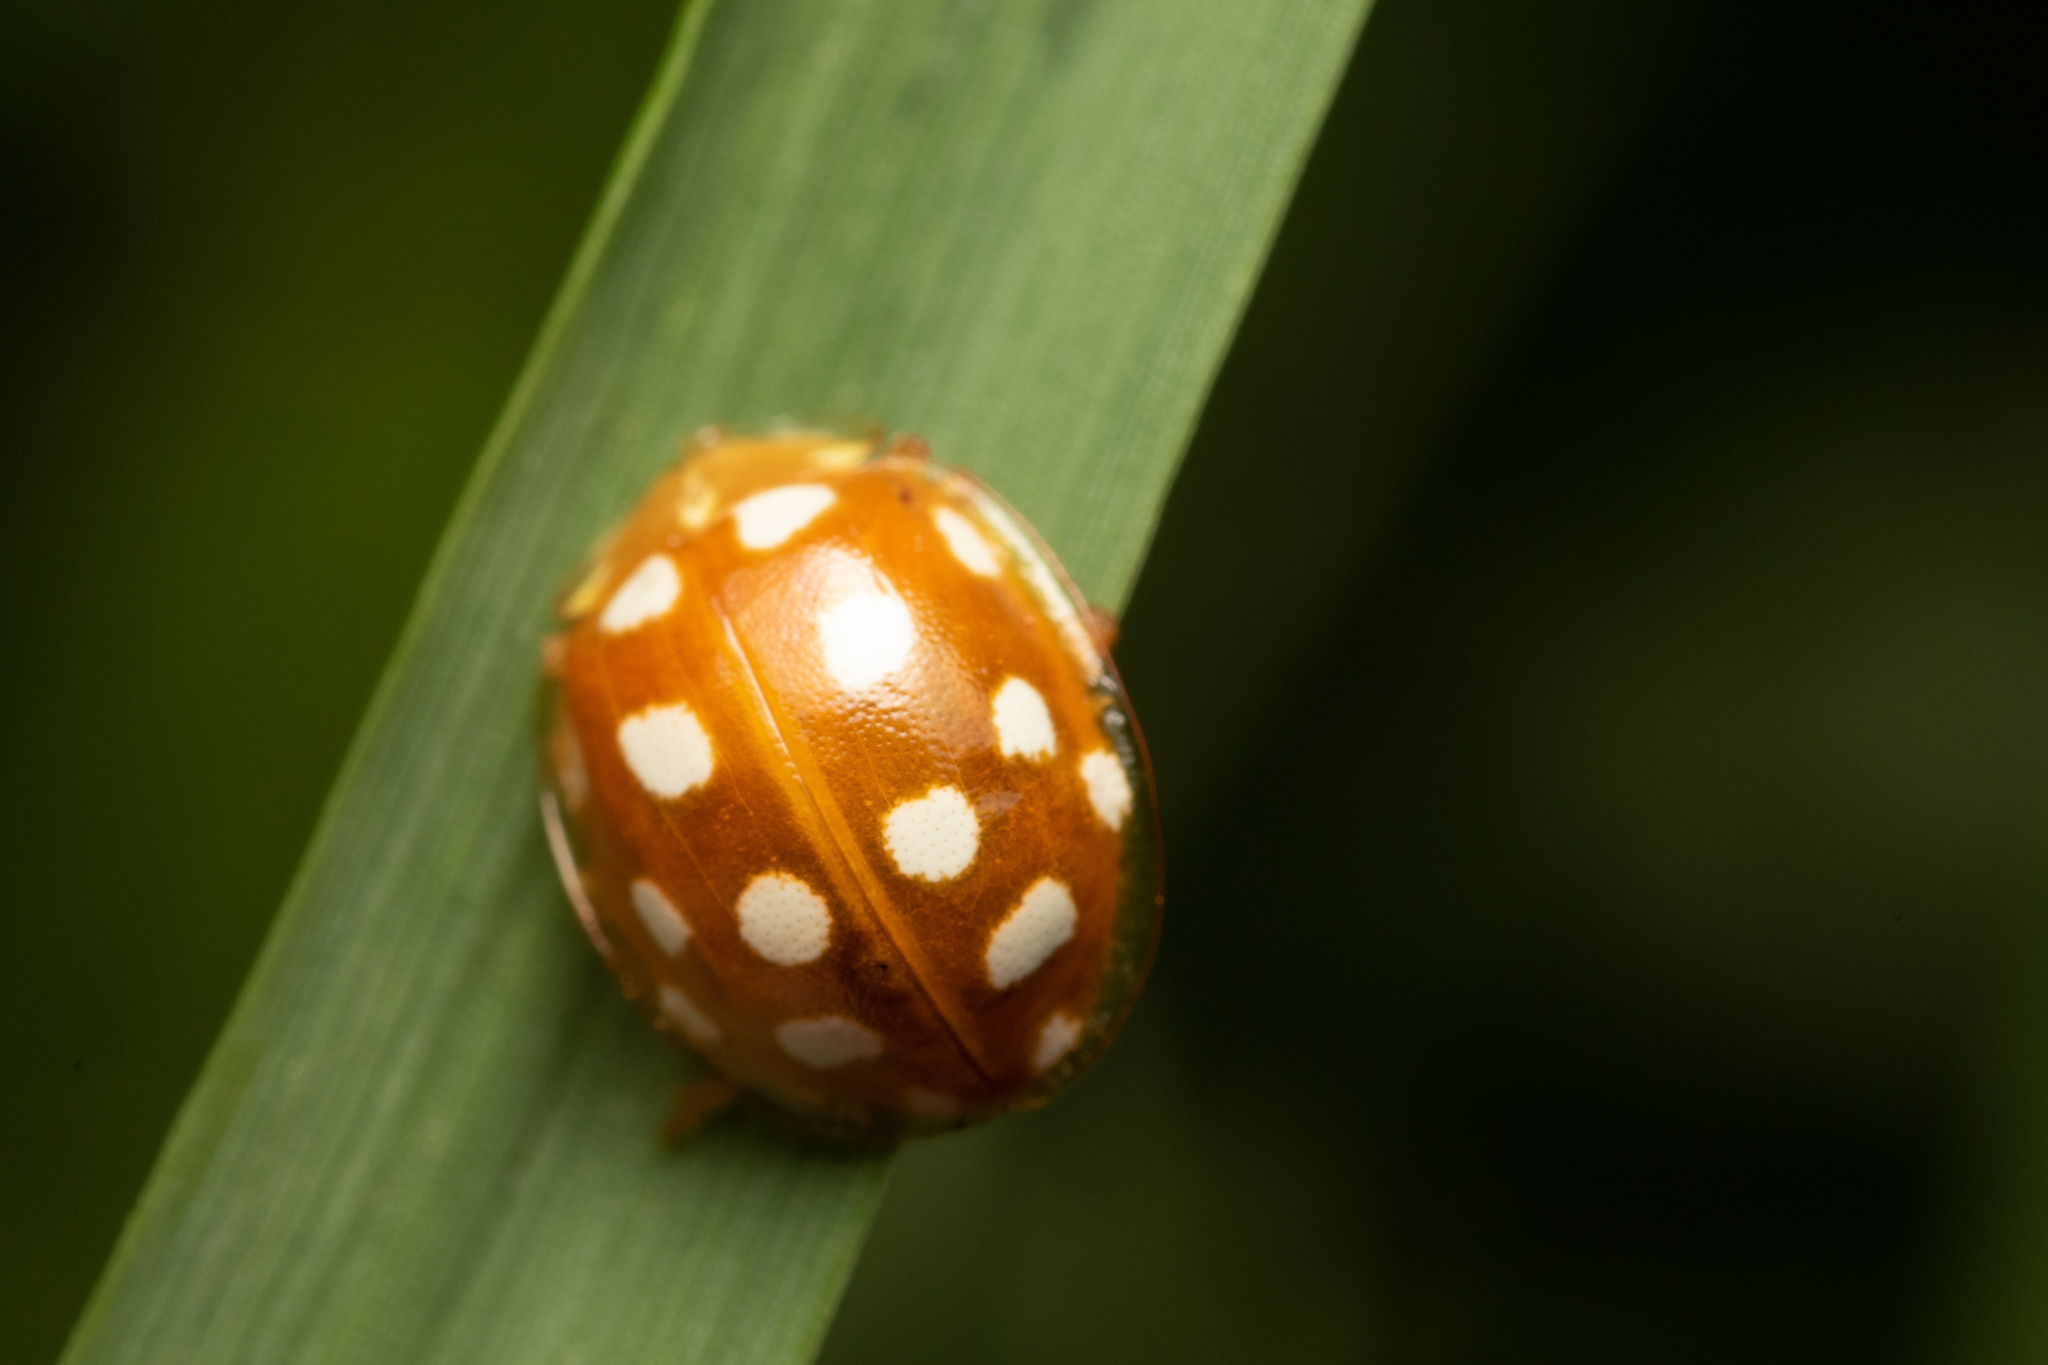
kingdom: Animalia
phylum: Arthropoda
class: Insecta
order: Coleoptera
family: Coccinellidae
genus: Halyzia
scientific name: Halyzia sedecimguttata
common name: Orange ladybird
